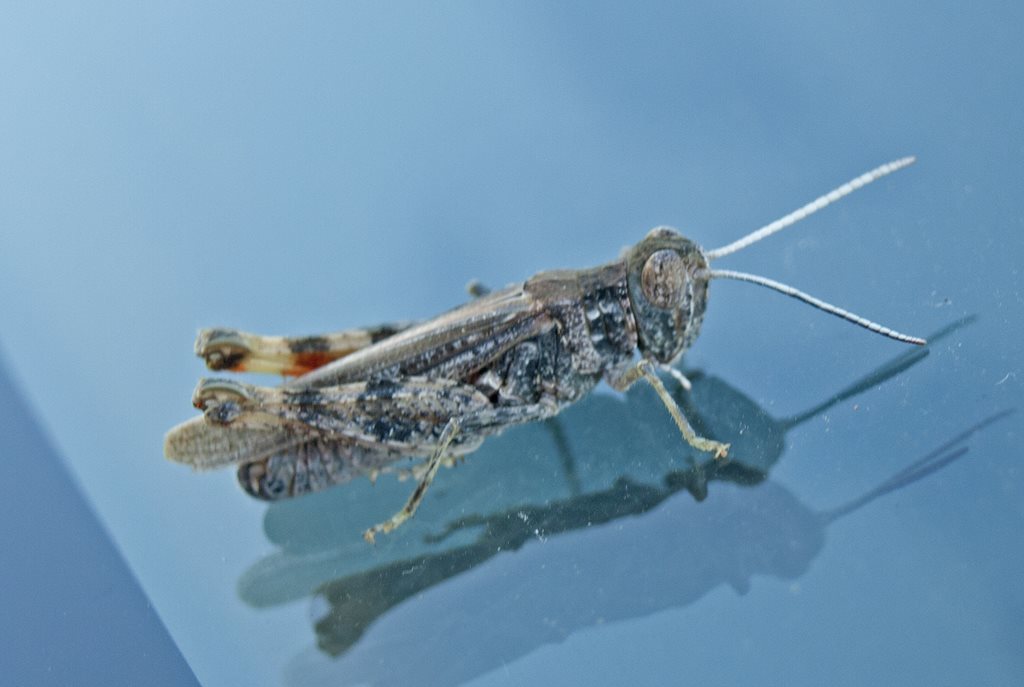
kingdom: Animalia
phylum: Arthropoda
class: Insecta
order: Orthoptera
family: Acrididae
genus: Azelota
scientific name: Azelota
